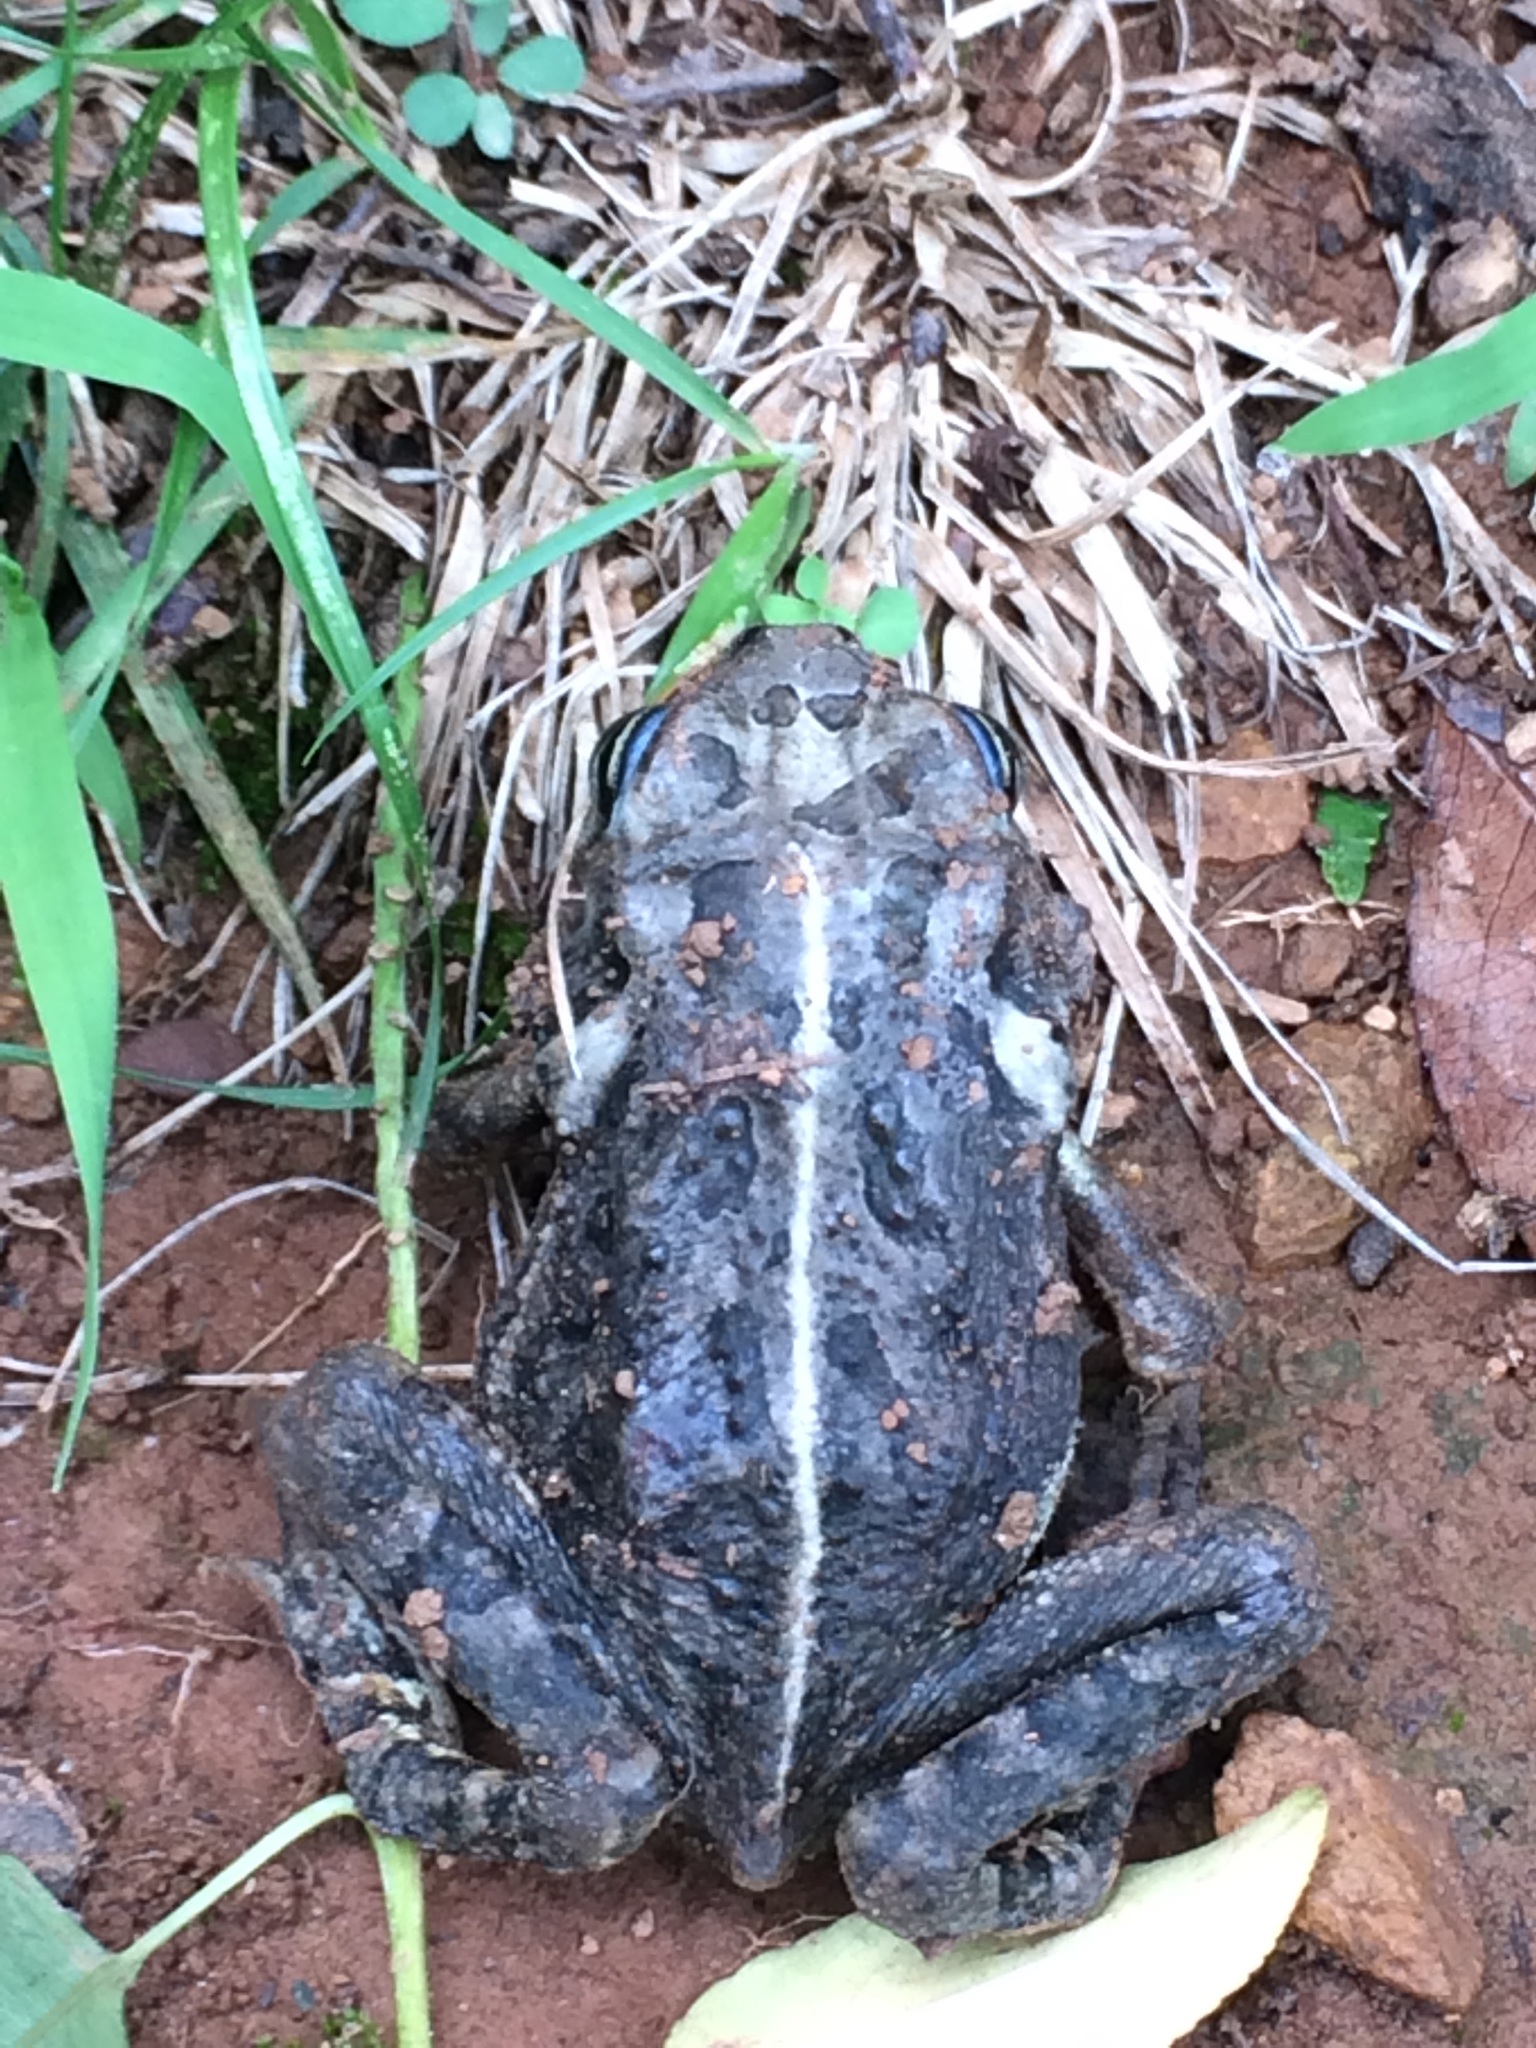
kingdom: Animalia
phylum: Chordata
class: Amphibia
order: Anura
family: Bufonidae
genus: Anaxyrus
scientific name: Anaxyrus fowleri
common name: Fowler's toad
